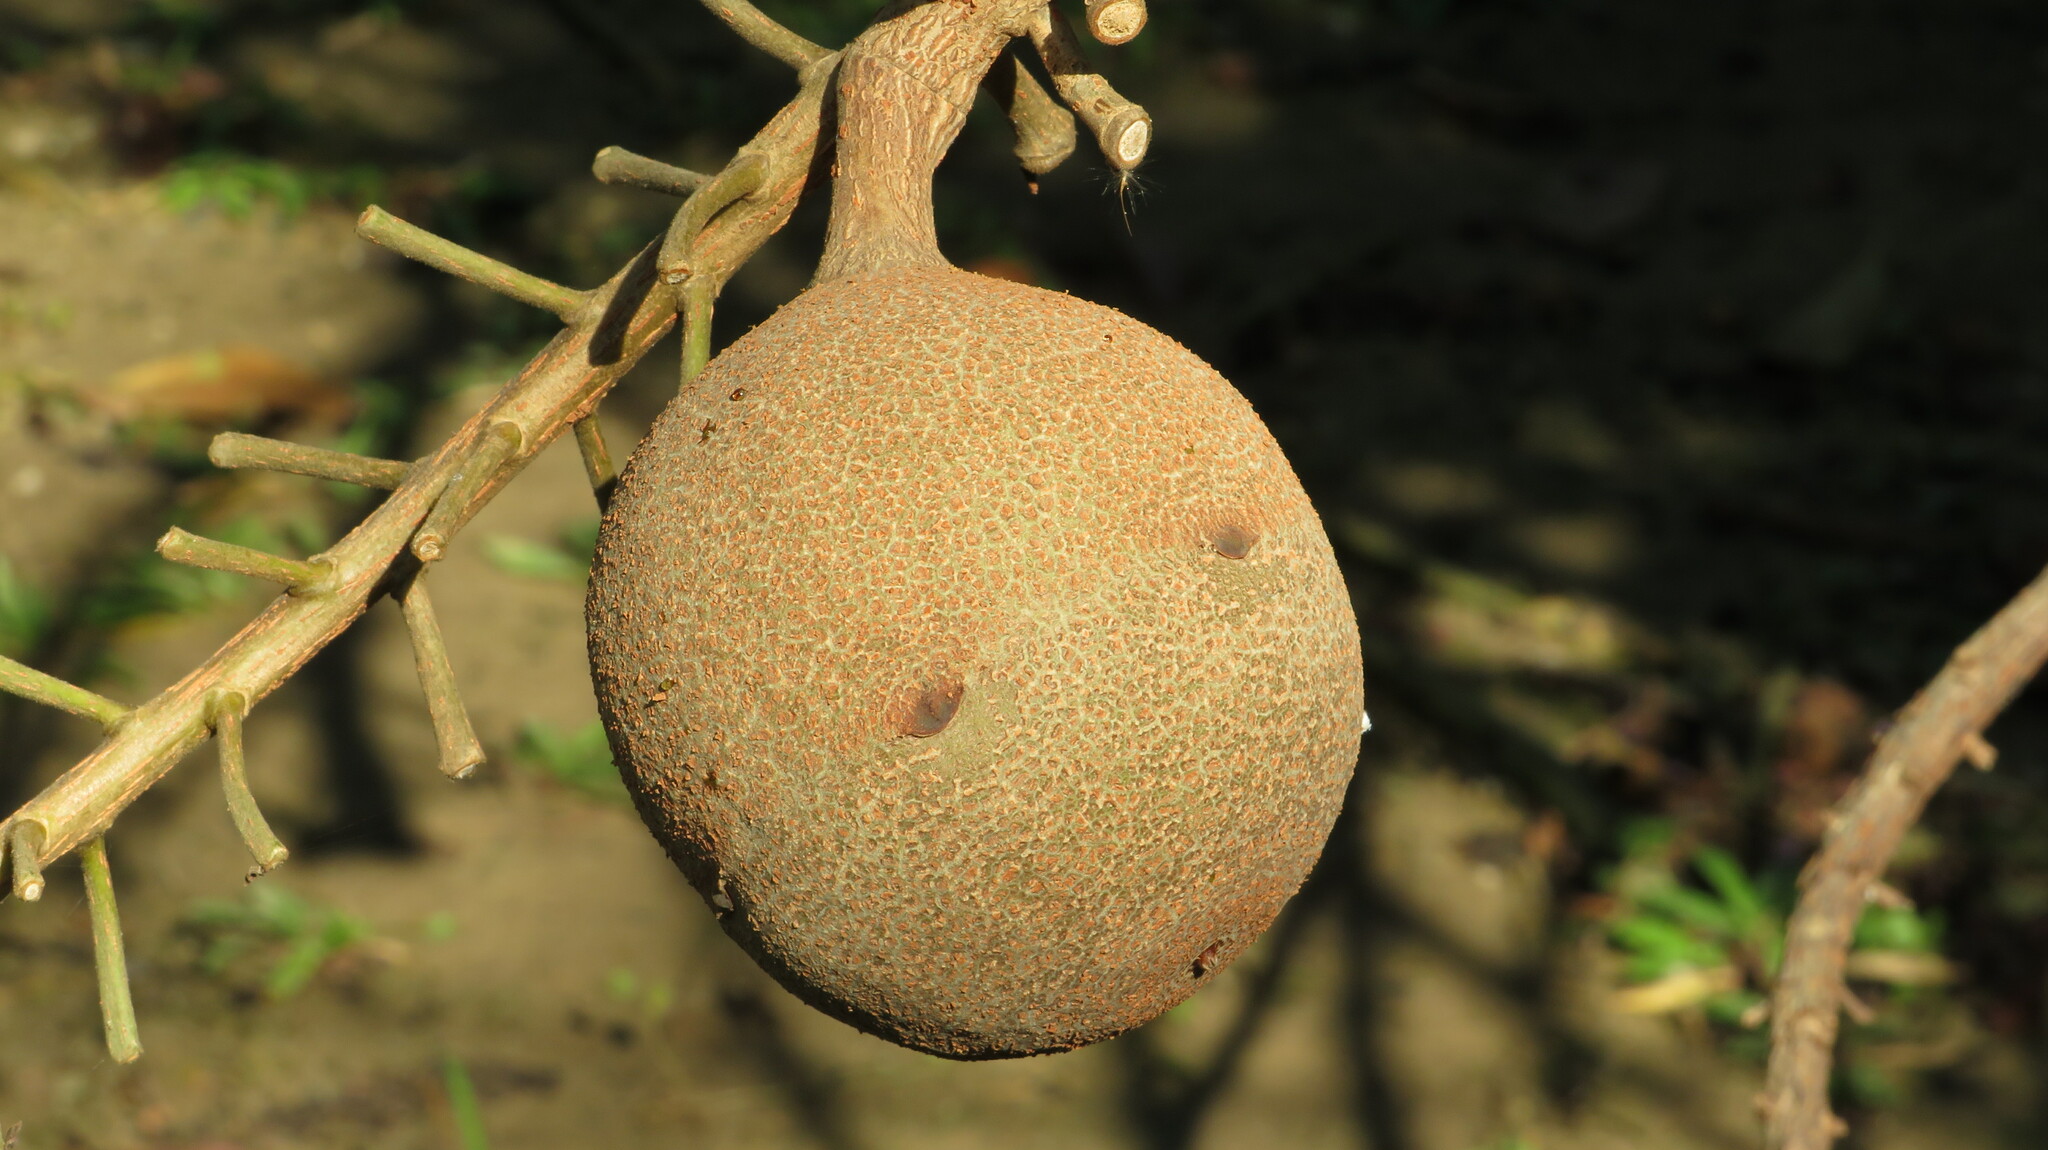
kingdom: Plantae
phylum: Tracheophyta
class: Magnoliopsida
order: Ericales
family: Lecythidaceae
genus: Couroupita
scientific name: Couroupita guianensis
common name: Cannonball tree
